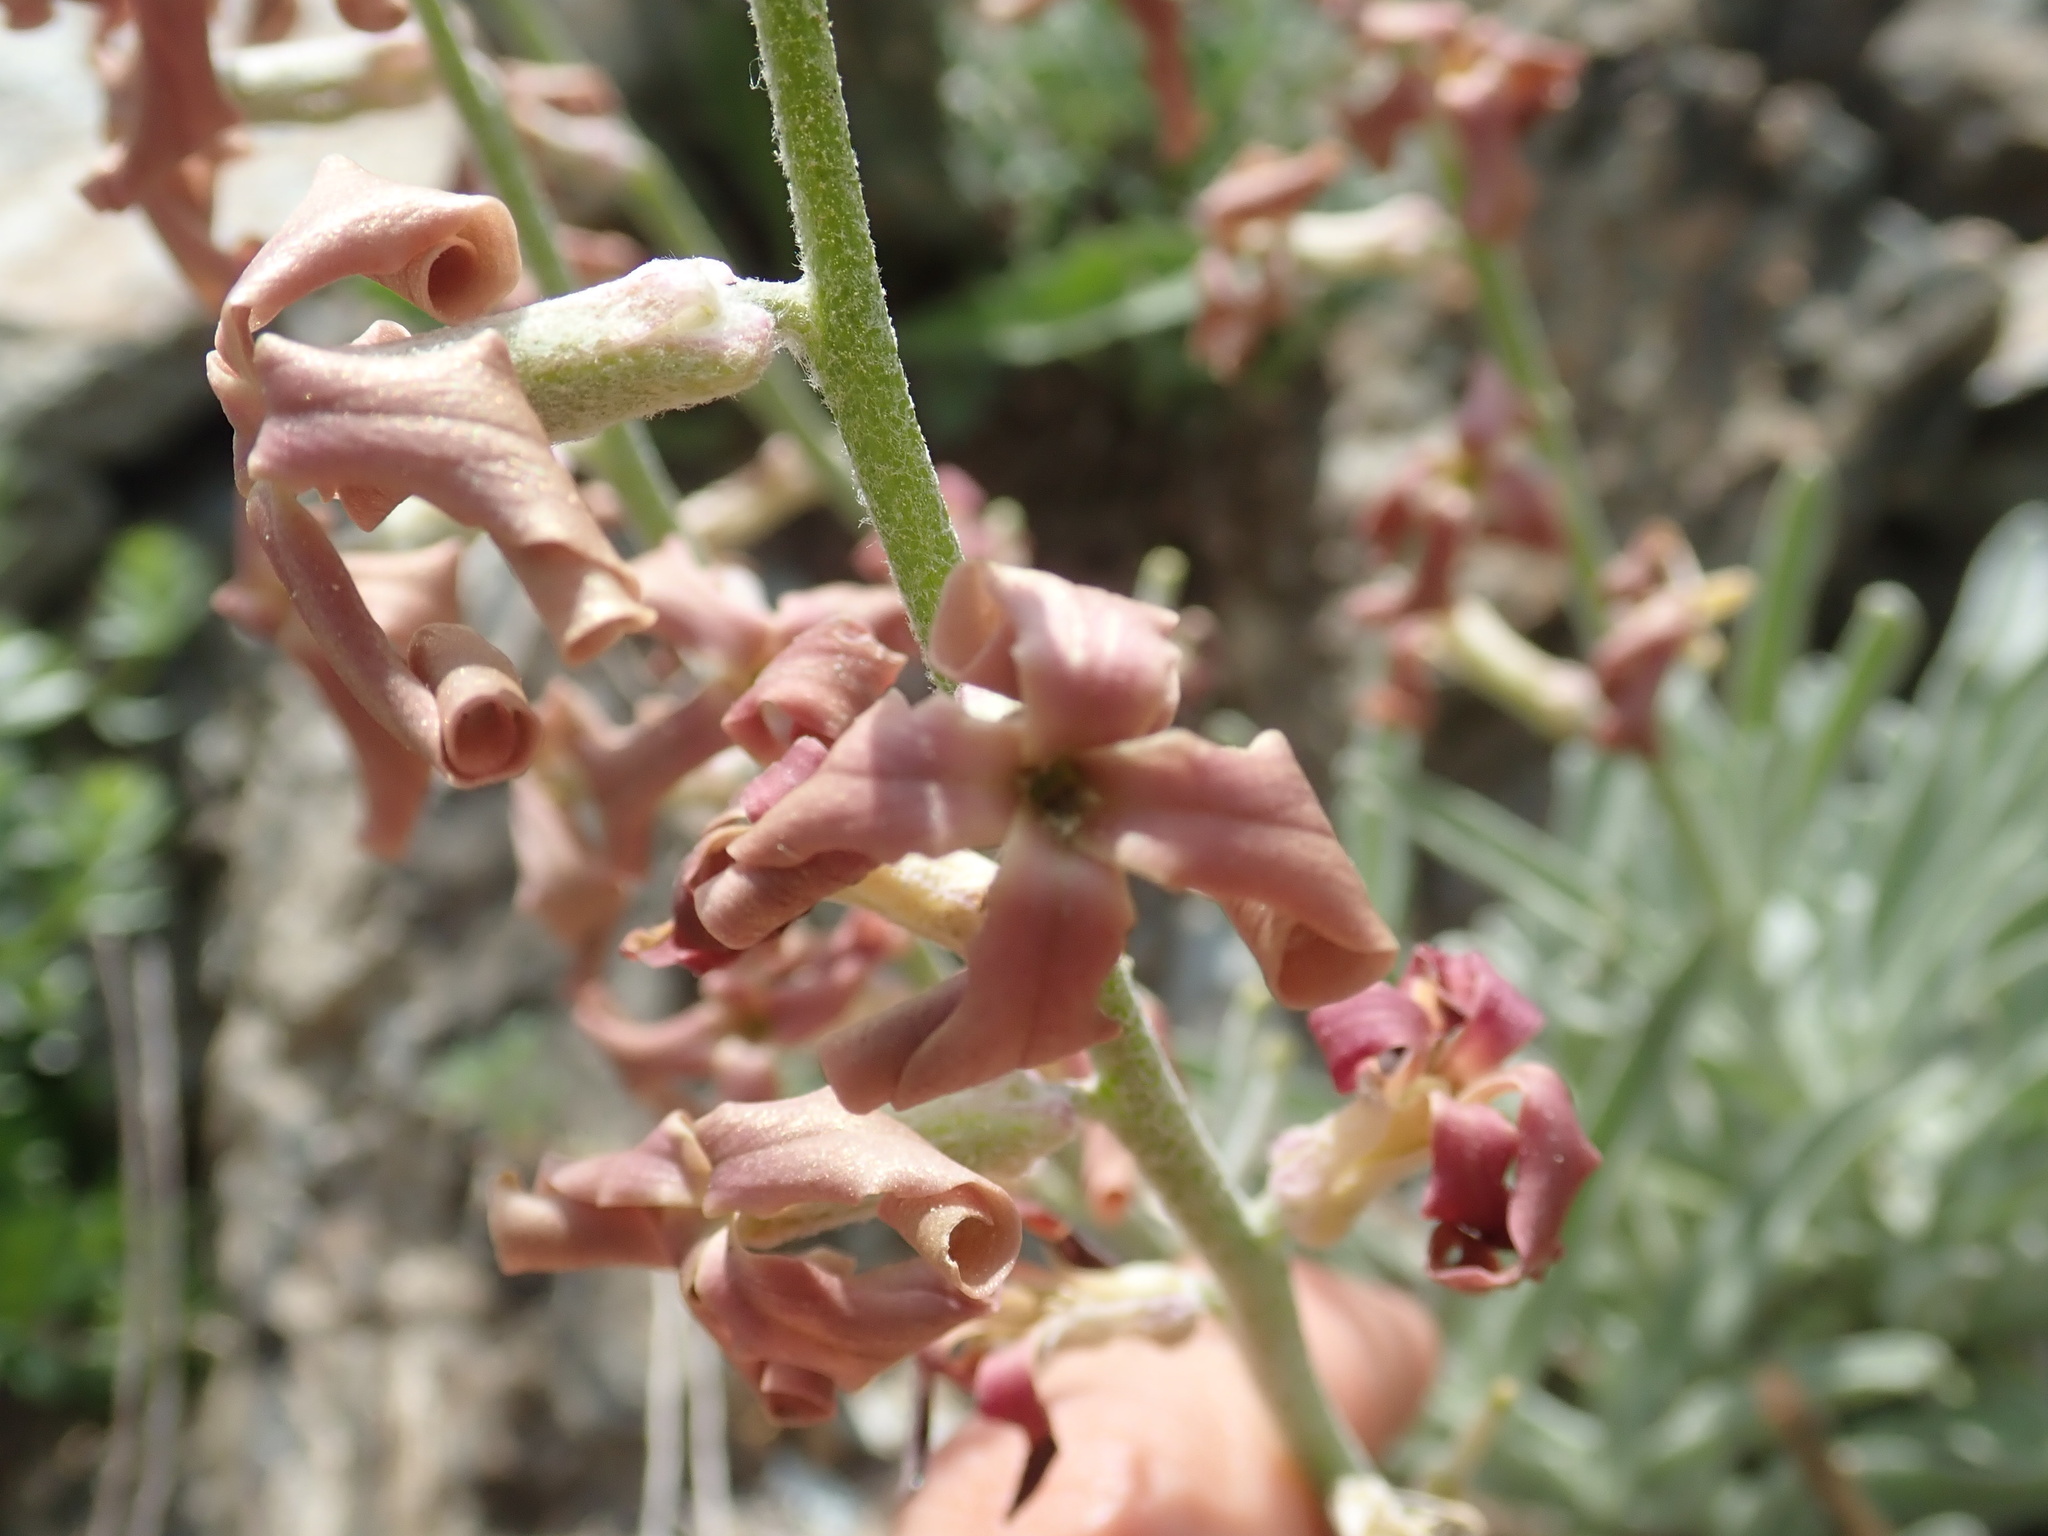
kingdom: Plantae
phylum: Tracheophyta
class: Magnoliopsida
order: Brassicales
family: Brassicaceae
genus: Matthiola
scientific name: Matthiola montana
